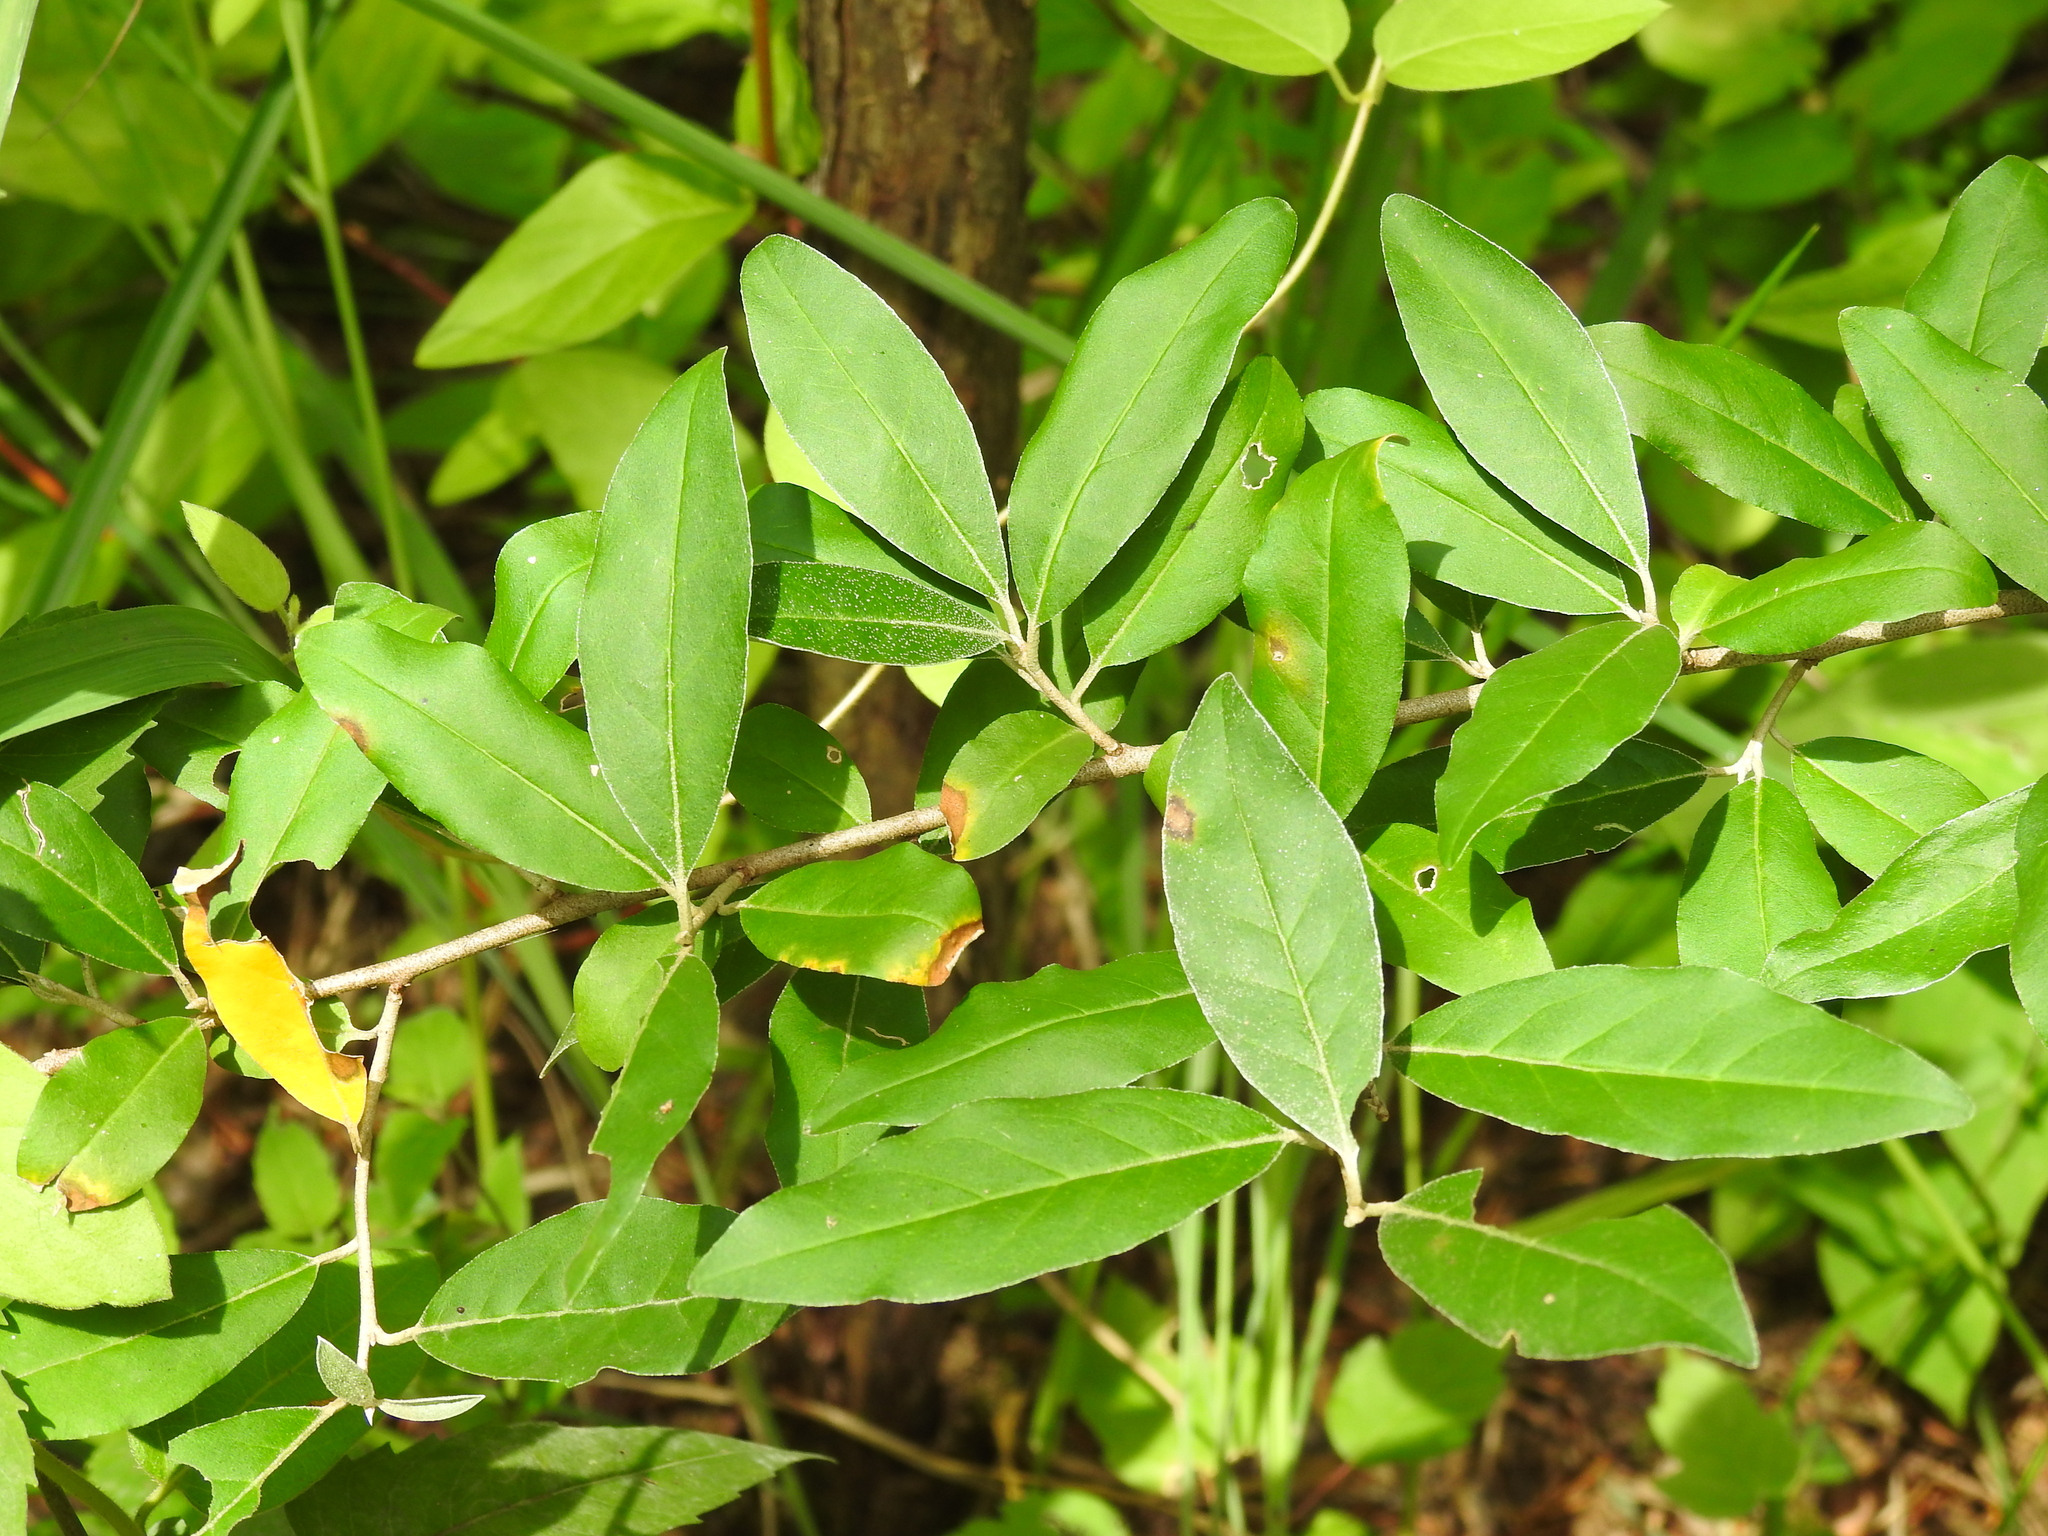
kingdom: Plantae
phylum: Tracheophyta
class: Magnoliopsida
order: Rosales
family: Elaeagnaceae
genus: Elaeagnus
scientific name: Elaeagnus umbellata
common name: Autumn olive
